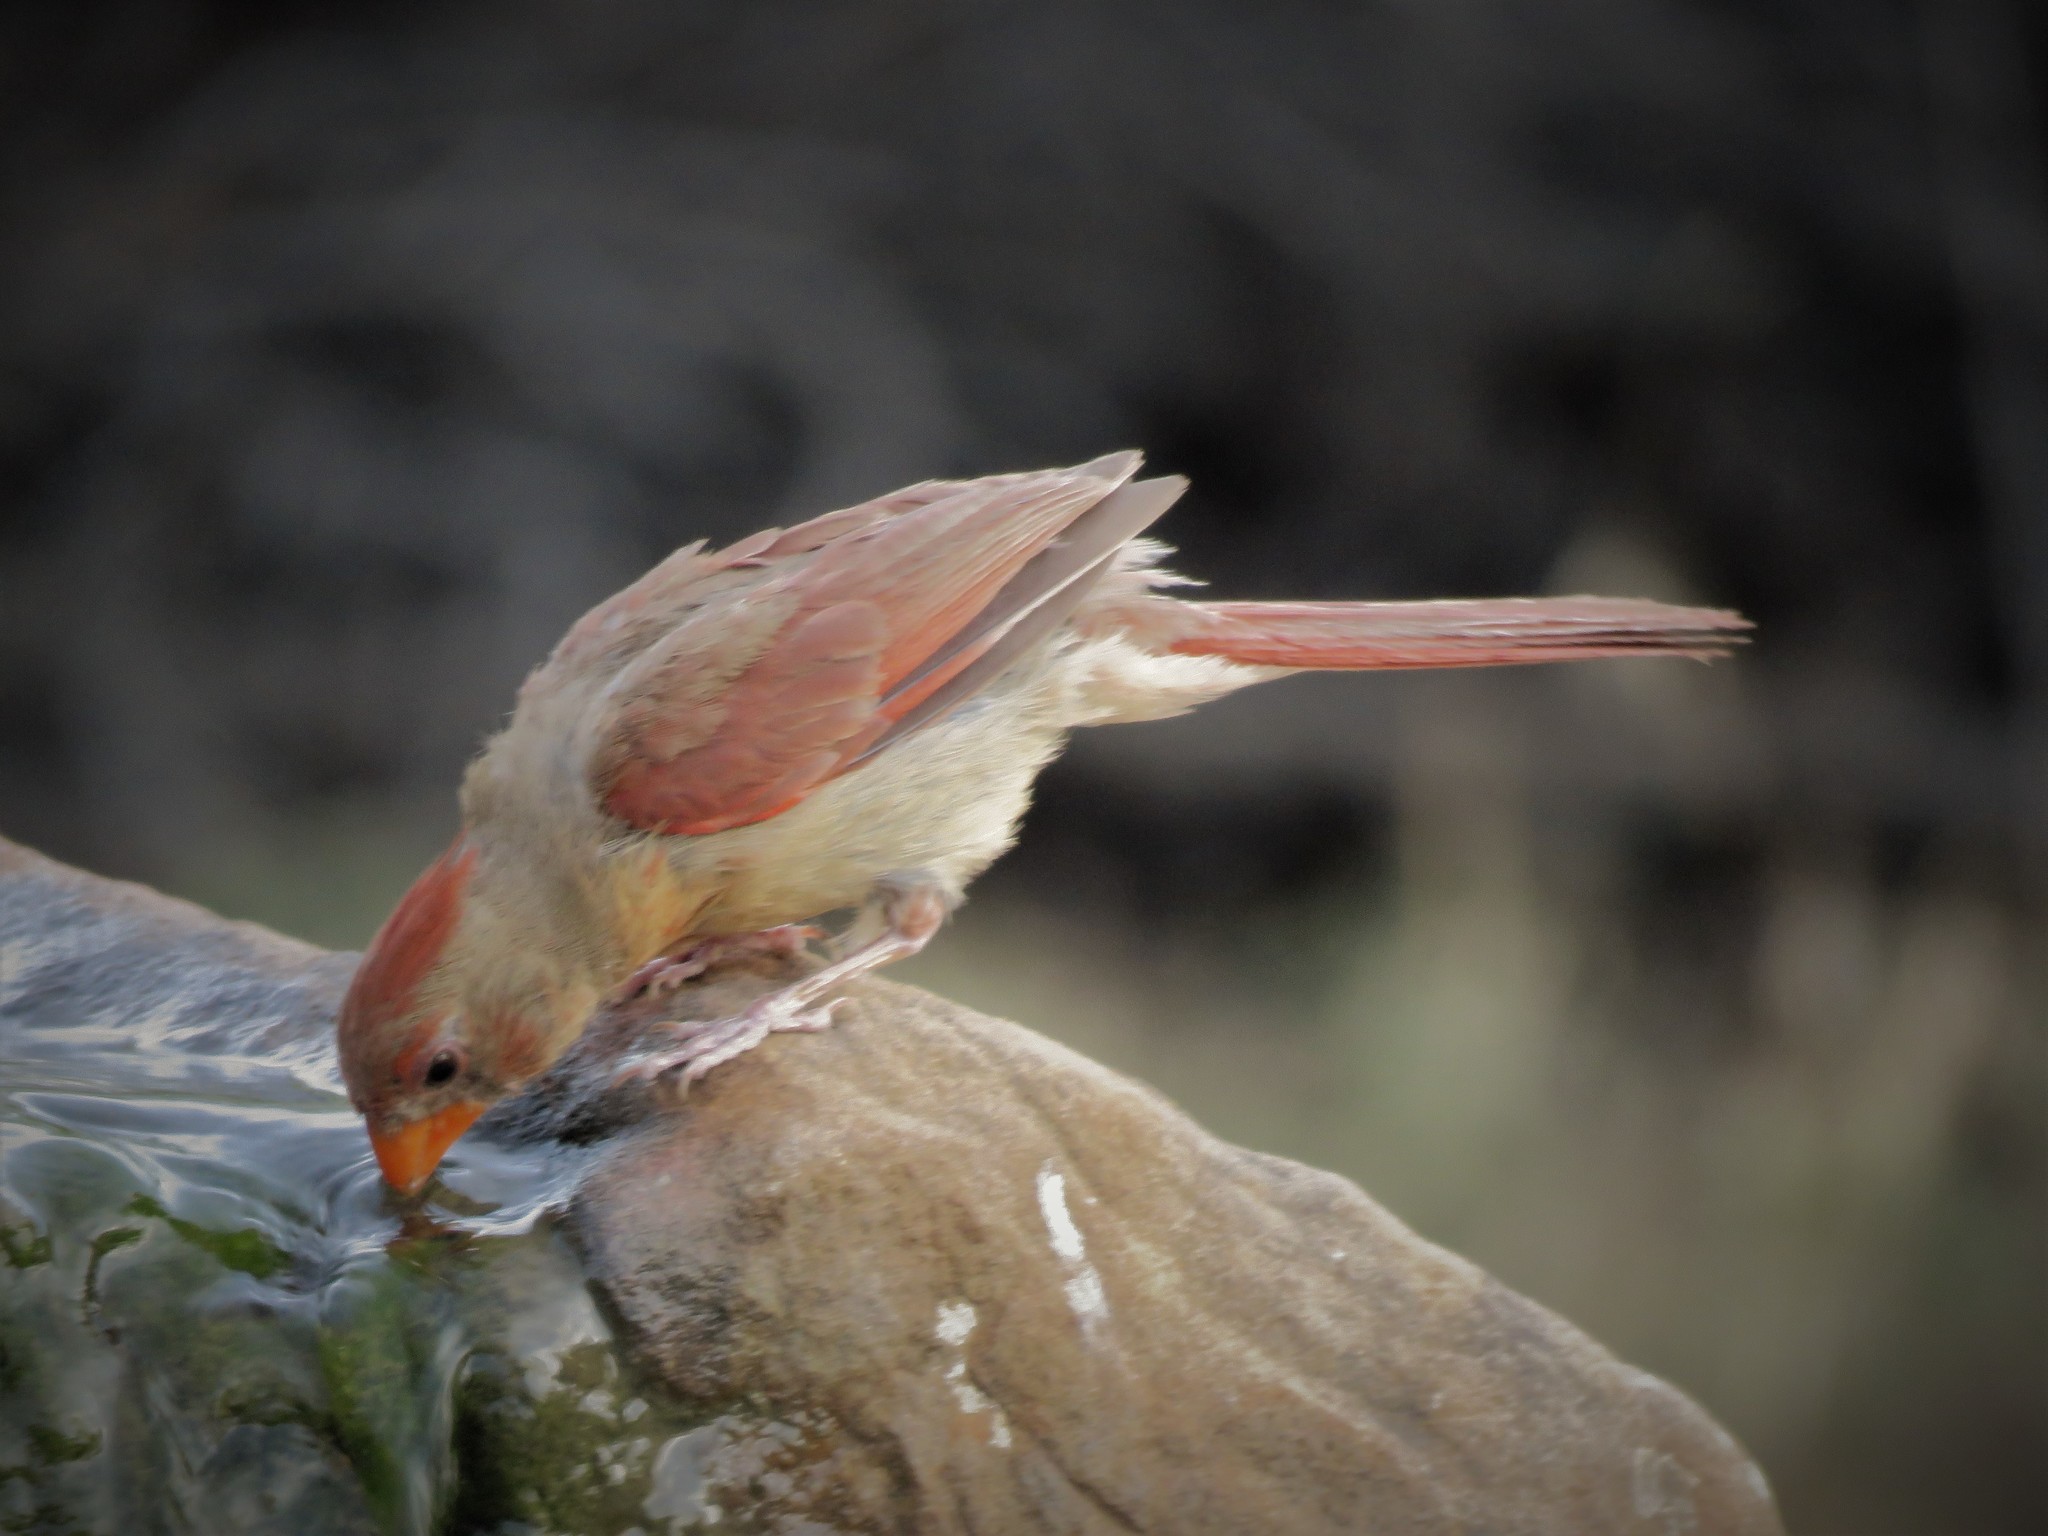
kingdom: Animalia
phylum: Chordata
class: Aves
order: Passeriformes
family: Cardinalidae
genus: Cardinalis
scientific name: Cardinalis cardinalis
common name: Northern cardinal
